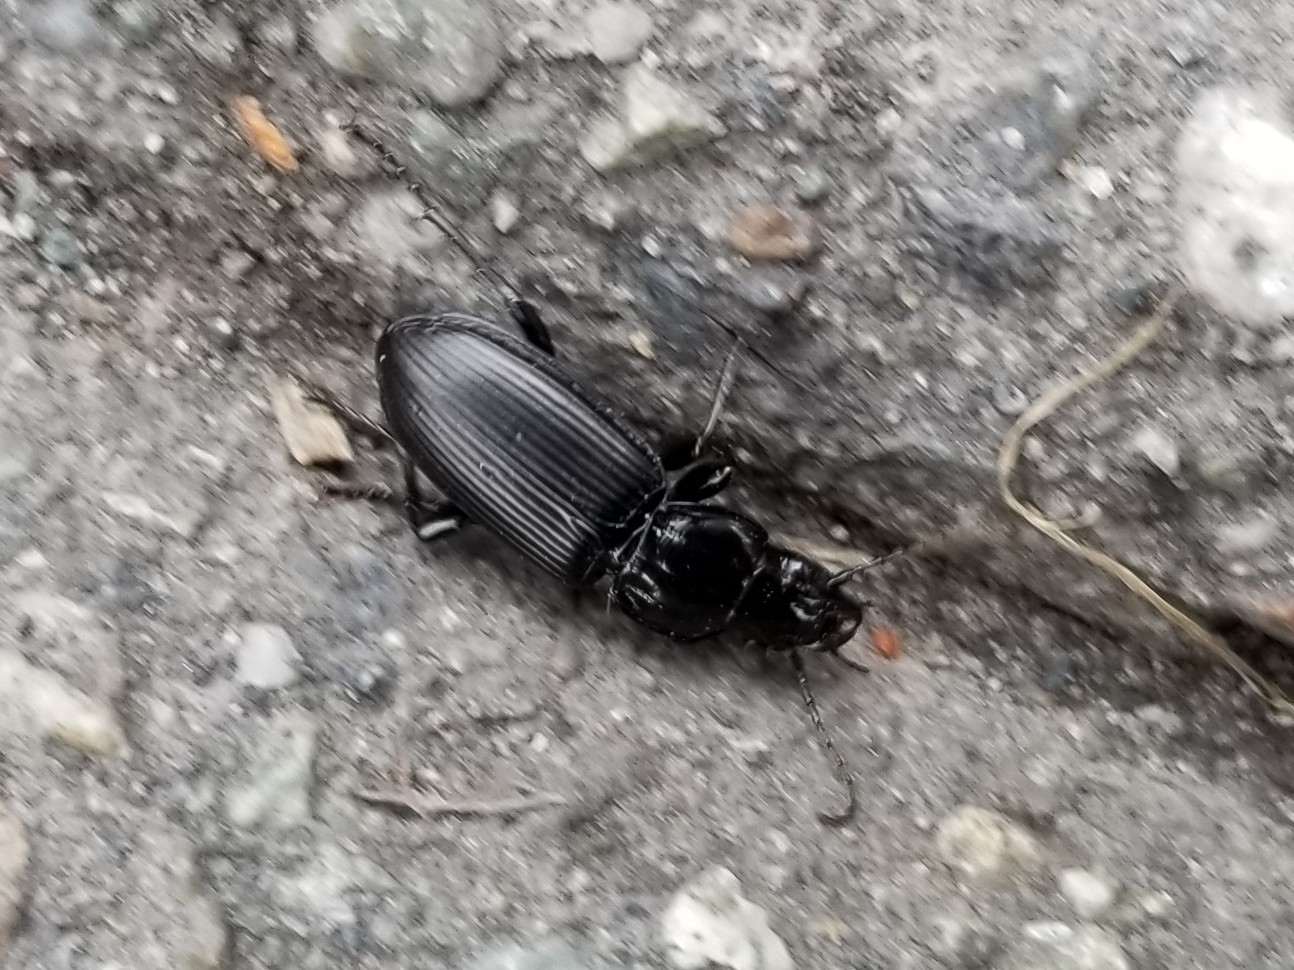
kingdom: Animalia
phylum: Arthropoda
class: Insecta
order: Coleoptera
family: Carabidae
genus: Pterostichus
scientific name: Pterostichus melanarius
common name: European dark harp ground beetle
